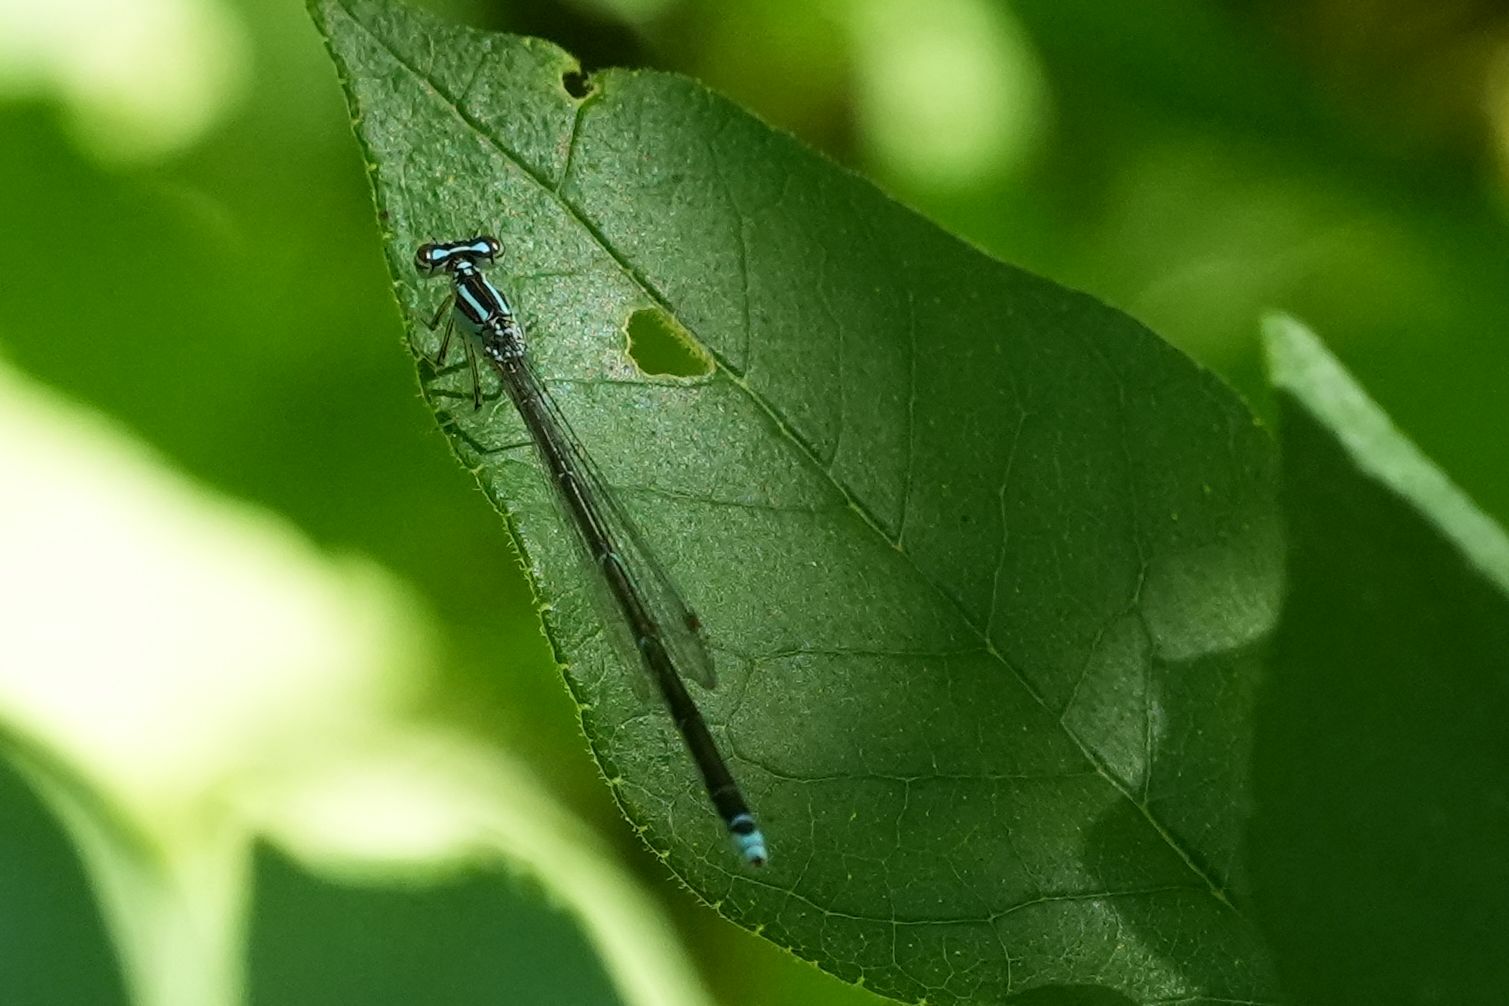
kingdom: Animalia
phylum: Arthropoda
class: Insecta
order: Odonata
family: Coenagrionidae
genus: Enallagma
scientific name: Enallagma exsulans
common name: Stream bluet
